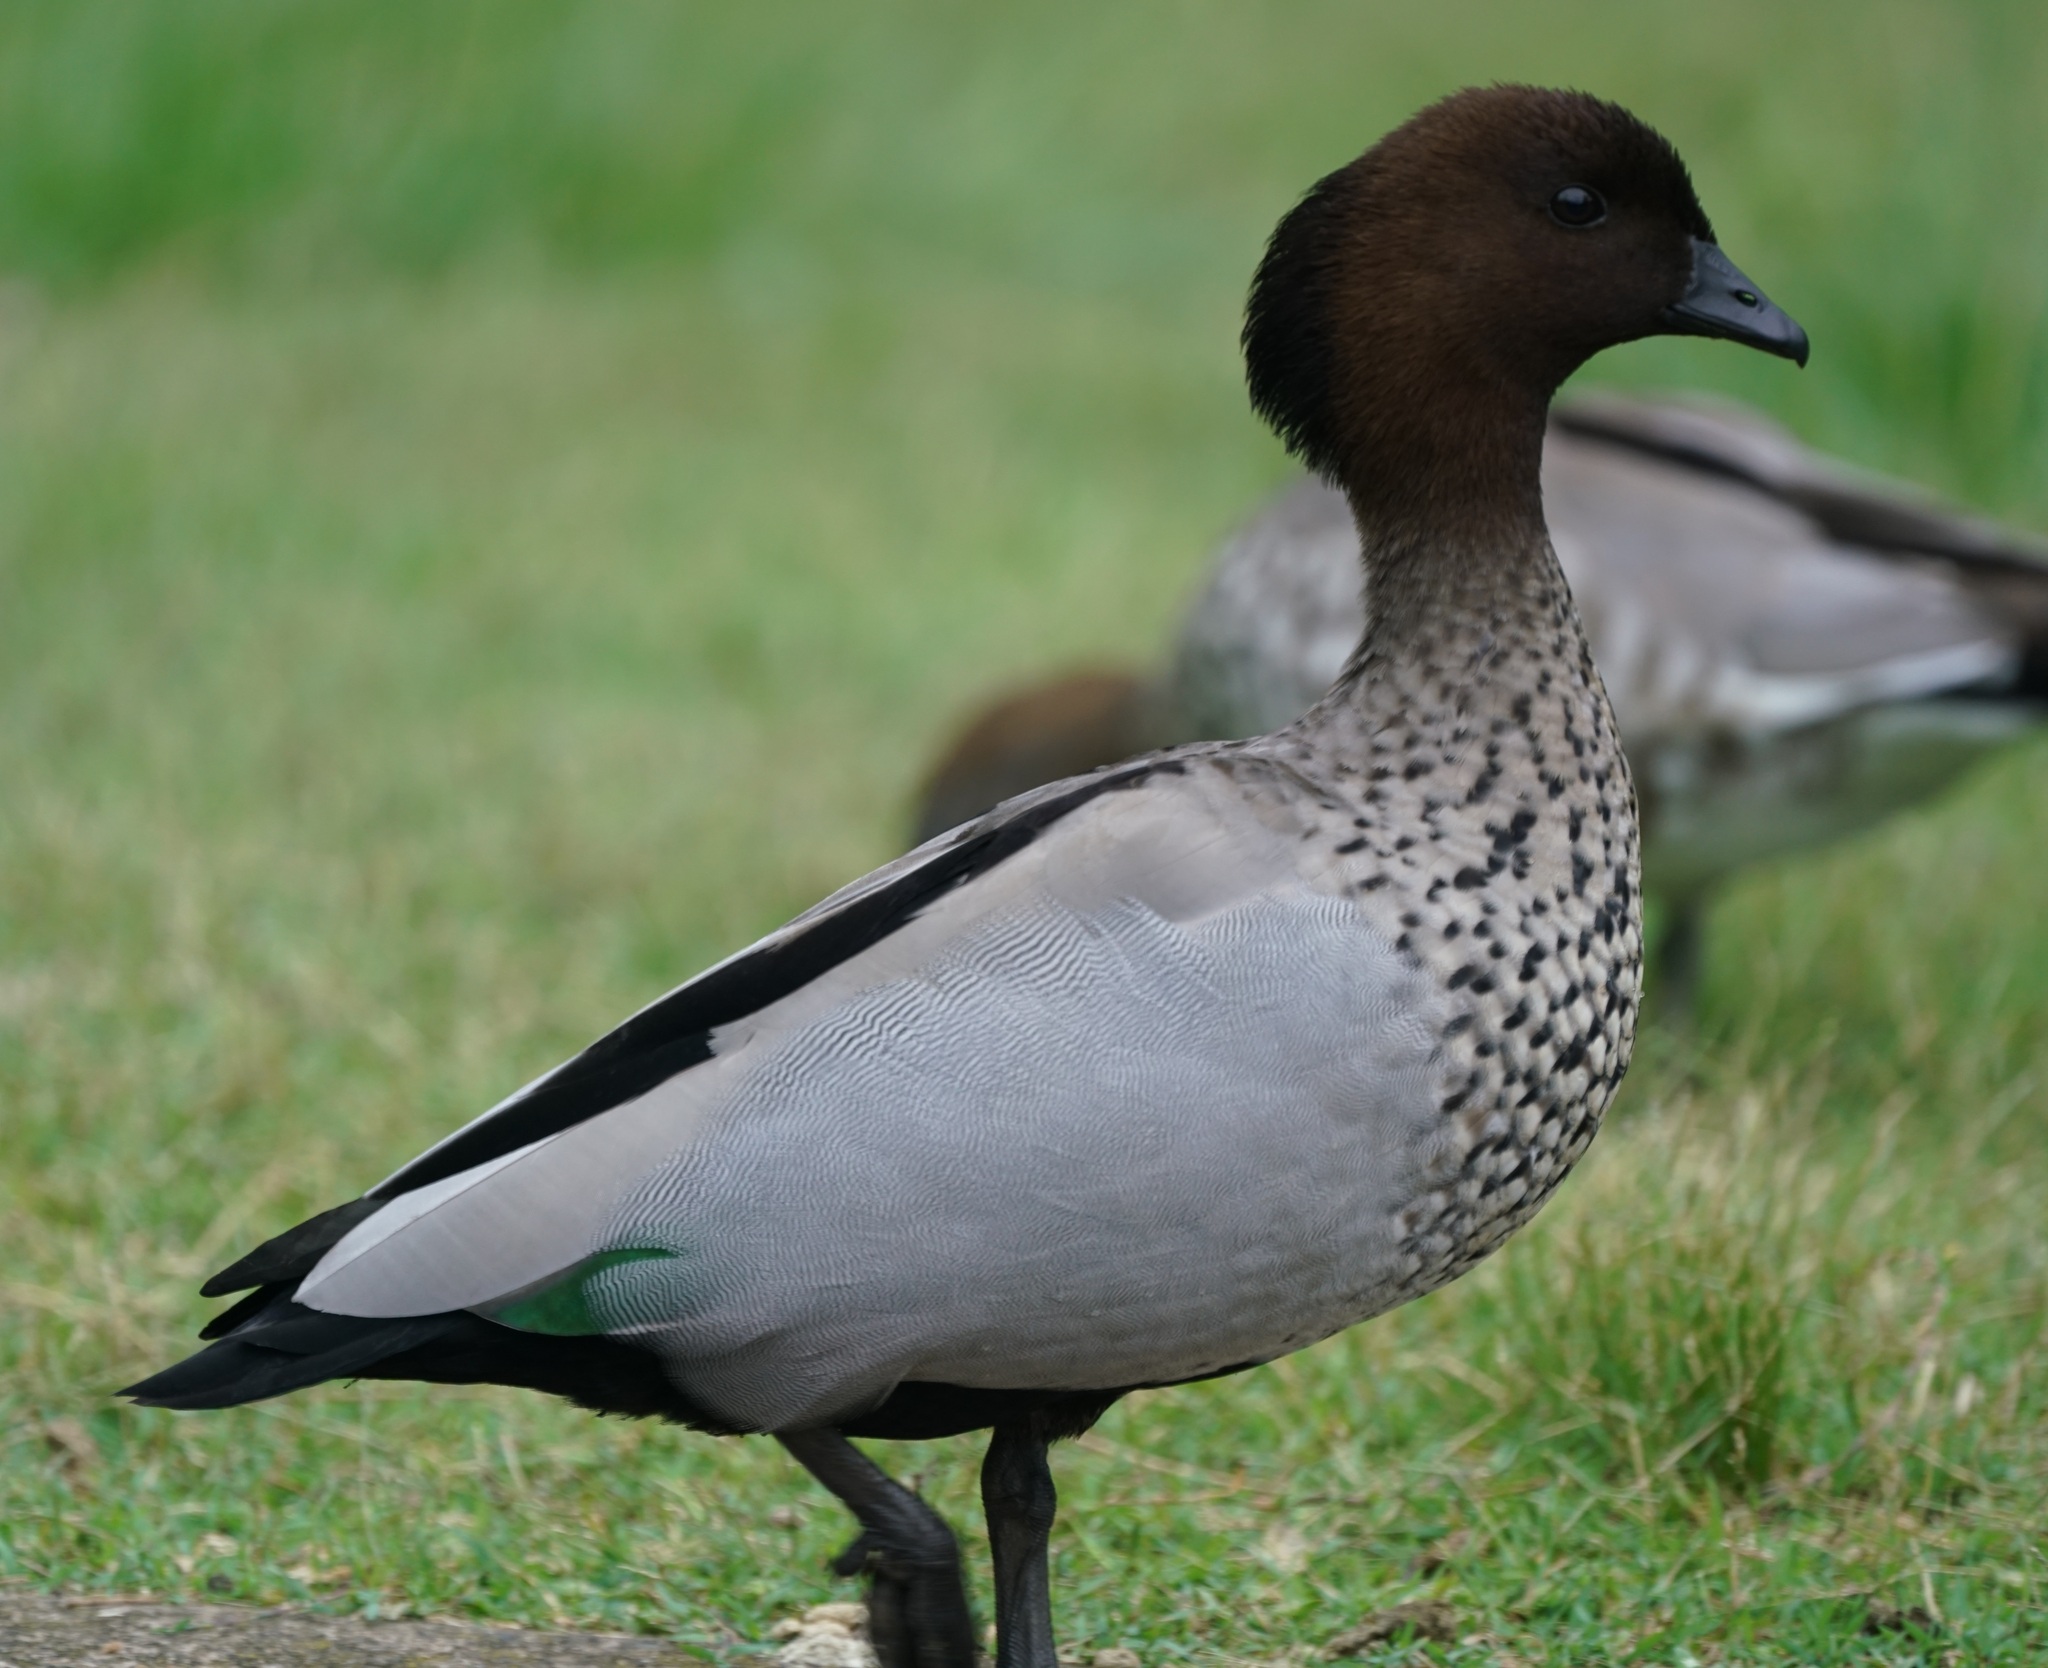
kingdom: Animalia
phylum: Chordata
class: Aves
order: Anseriformes
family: Anatidae
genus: Chenonetta
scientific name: Chenonetta jubata
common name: Maned duck
